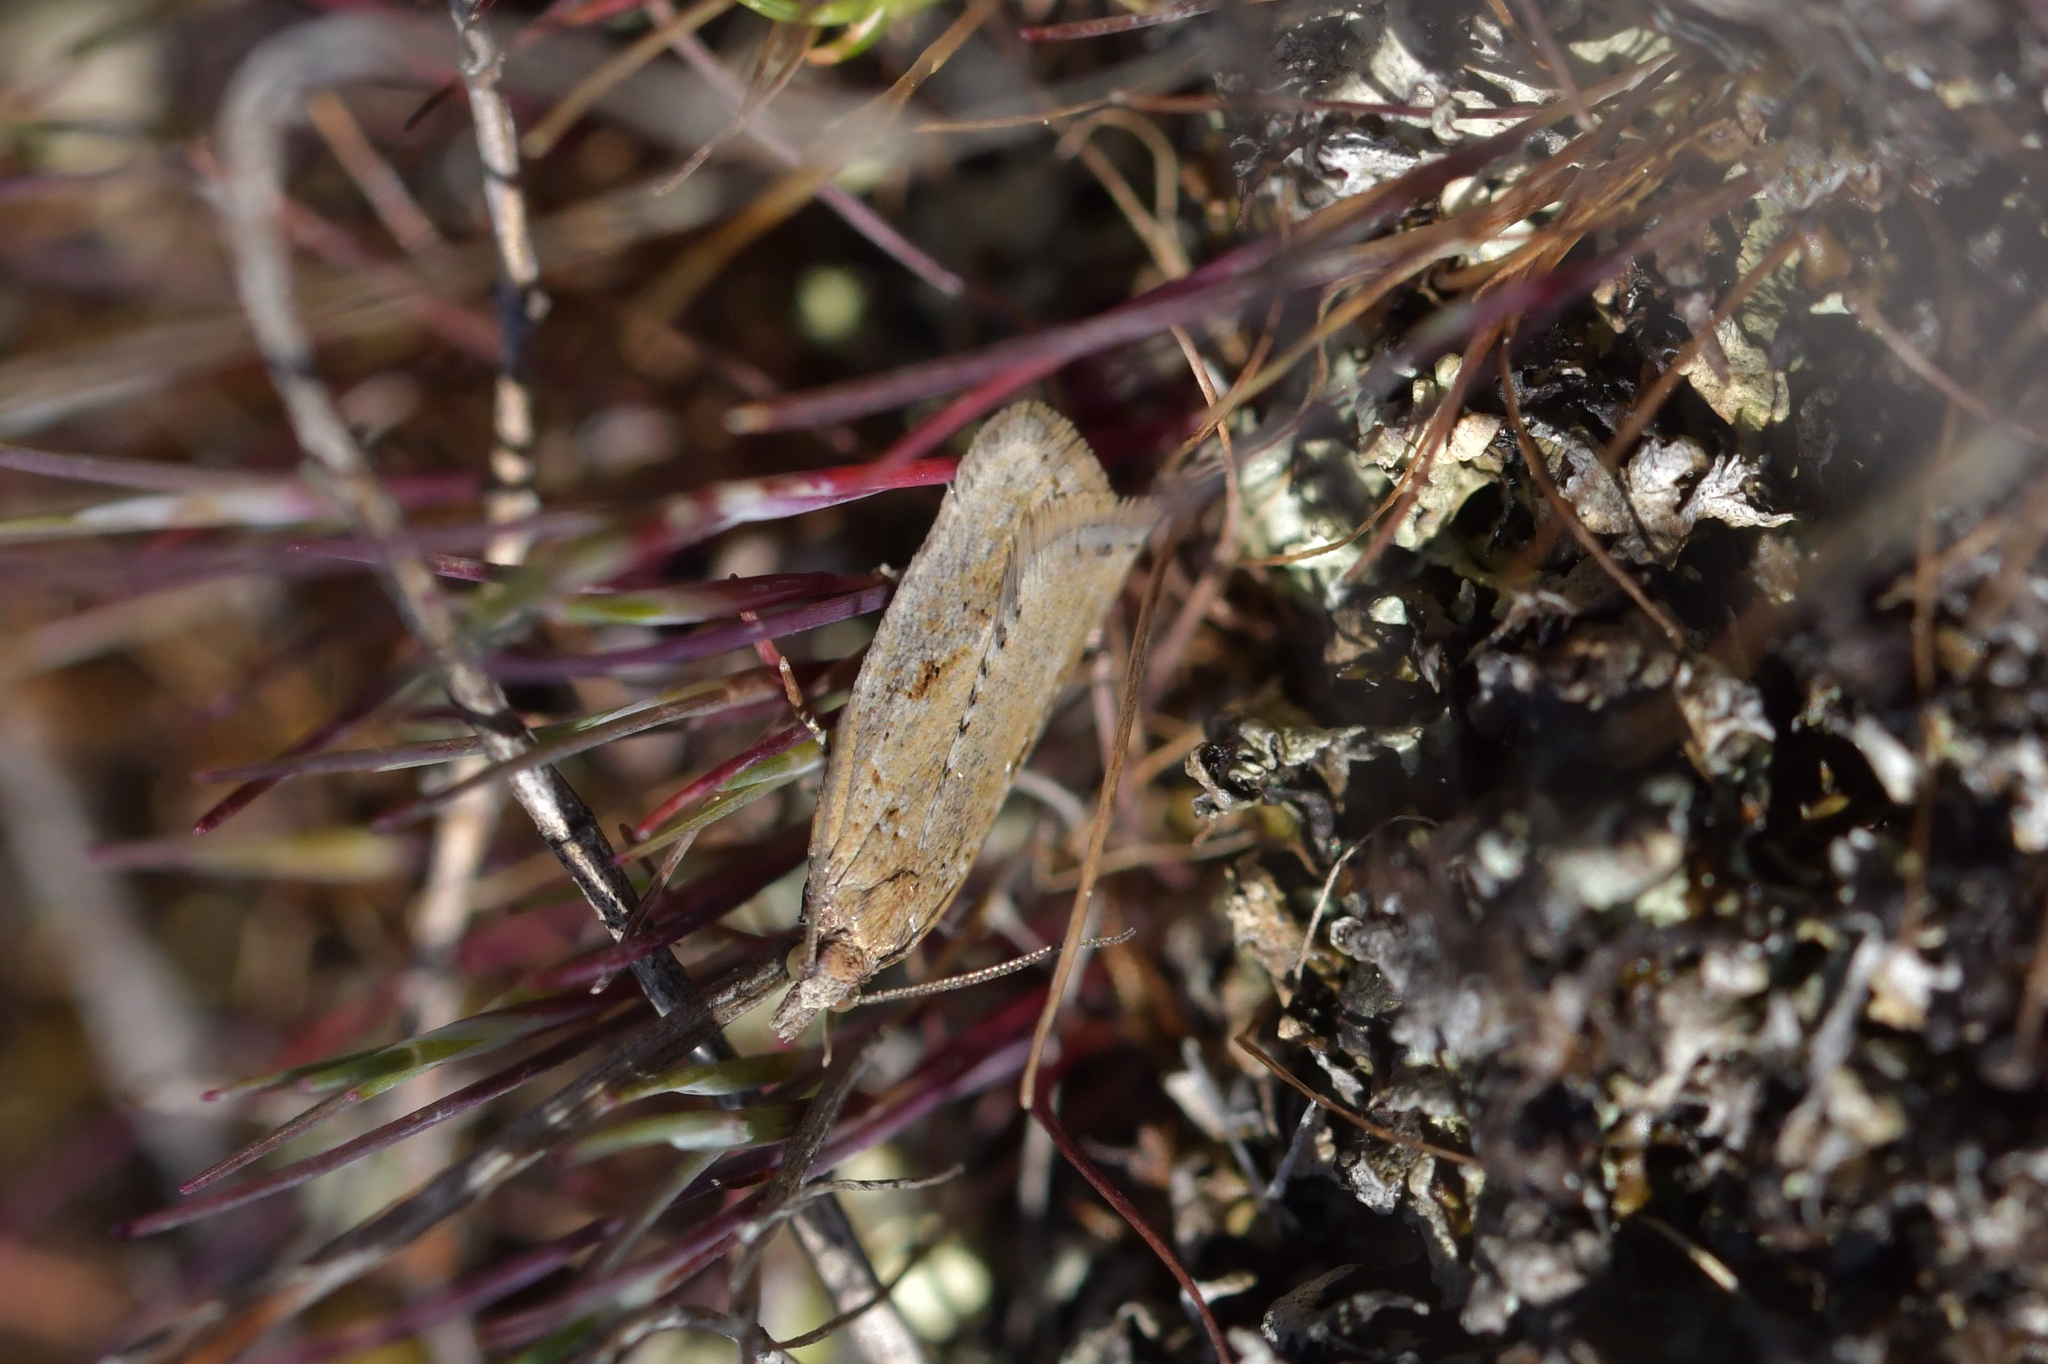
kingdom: Animalia
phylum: Arthropoda
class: Insecta
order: Lepidoptera
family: Tortricidae
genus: Capua
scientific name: Capua semiferana
